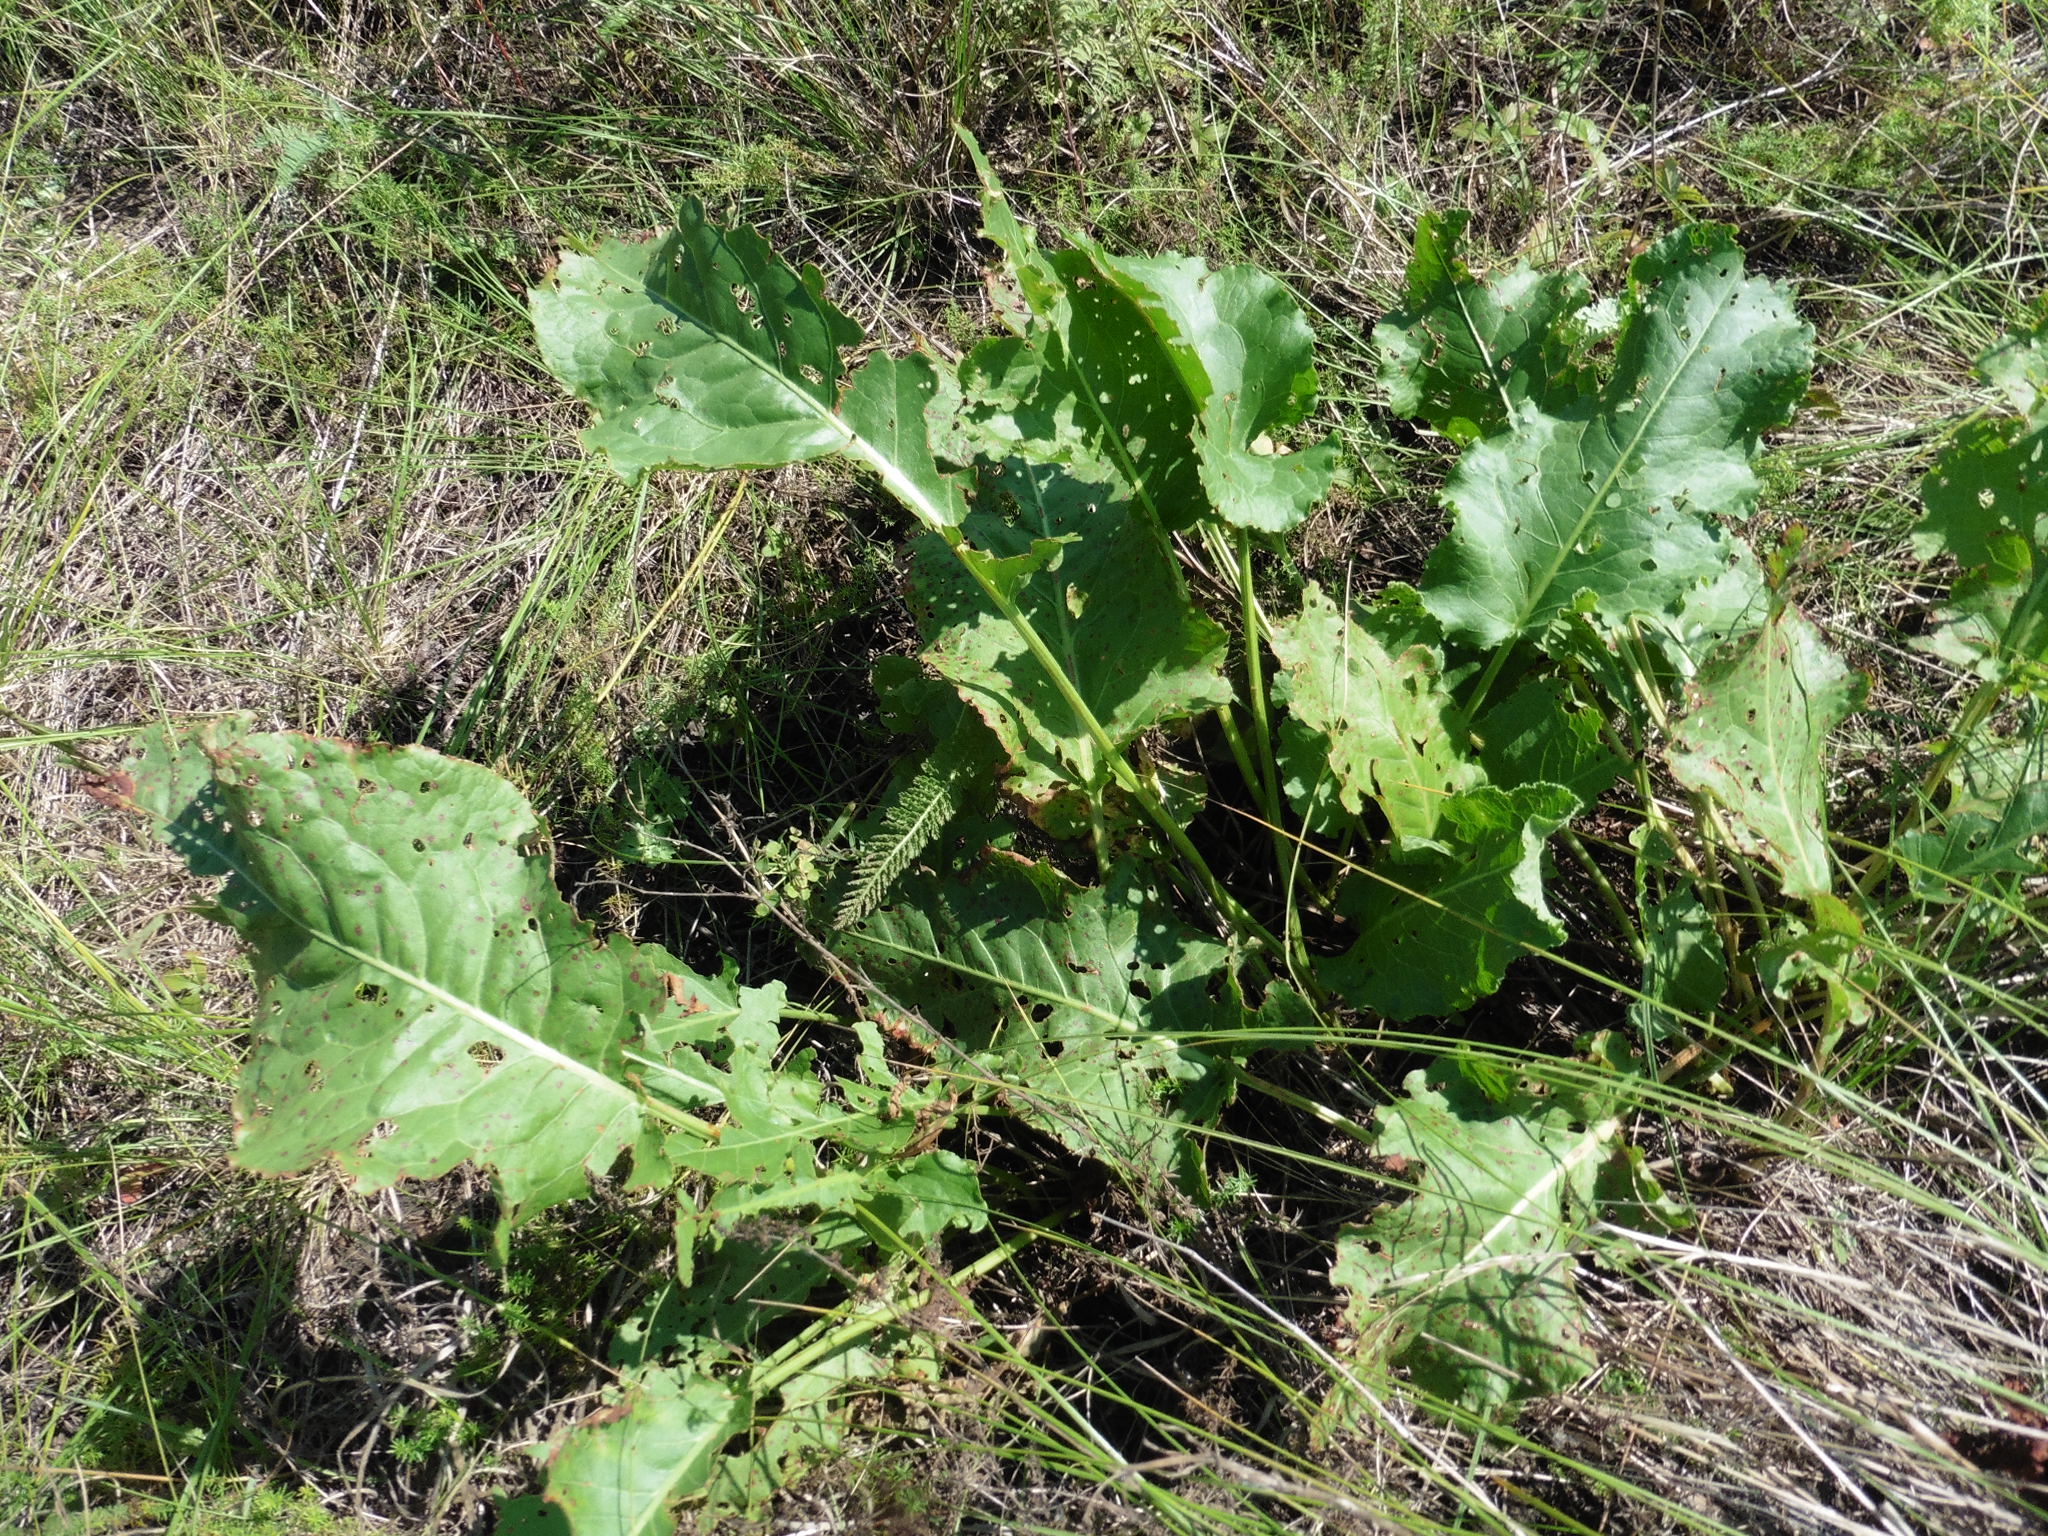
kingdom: Plantae
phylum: Tracheophyta
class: Magnoliopsida
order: Caryophyllales
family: Polygonaceae
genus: Rumex
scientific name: Rumex confertus
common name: Russian dock
